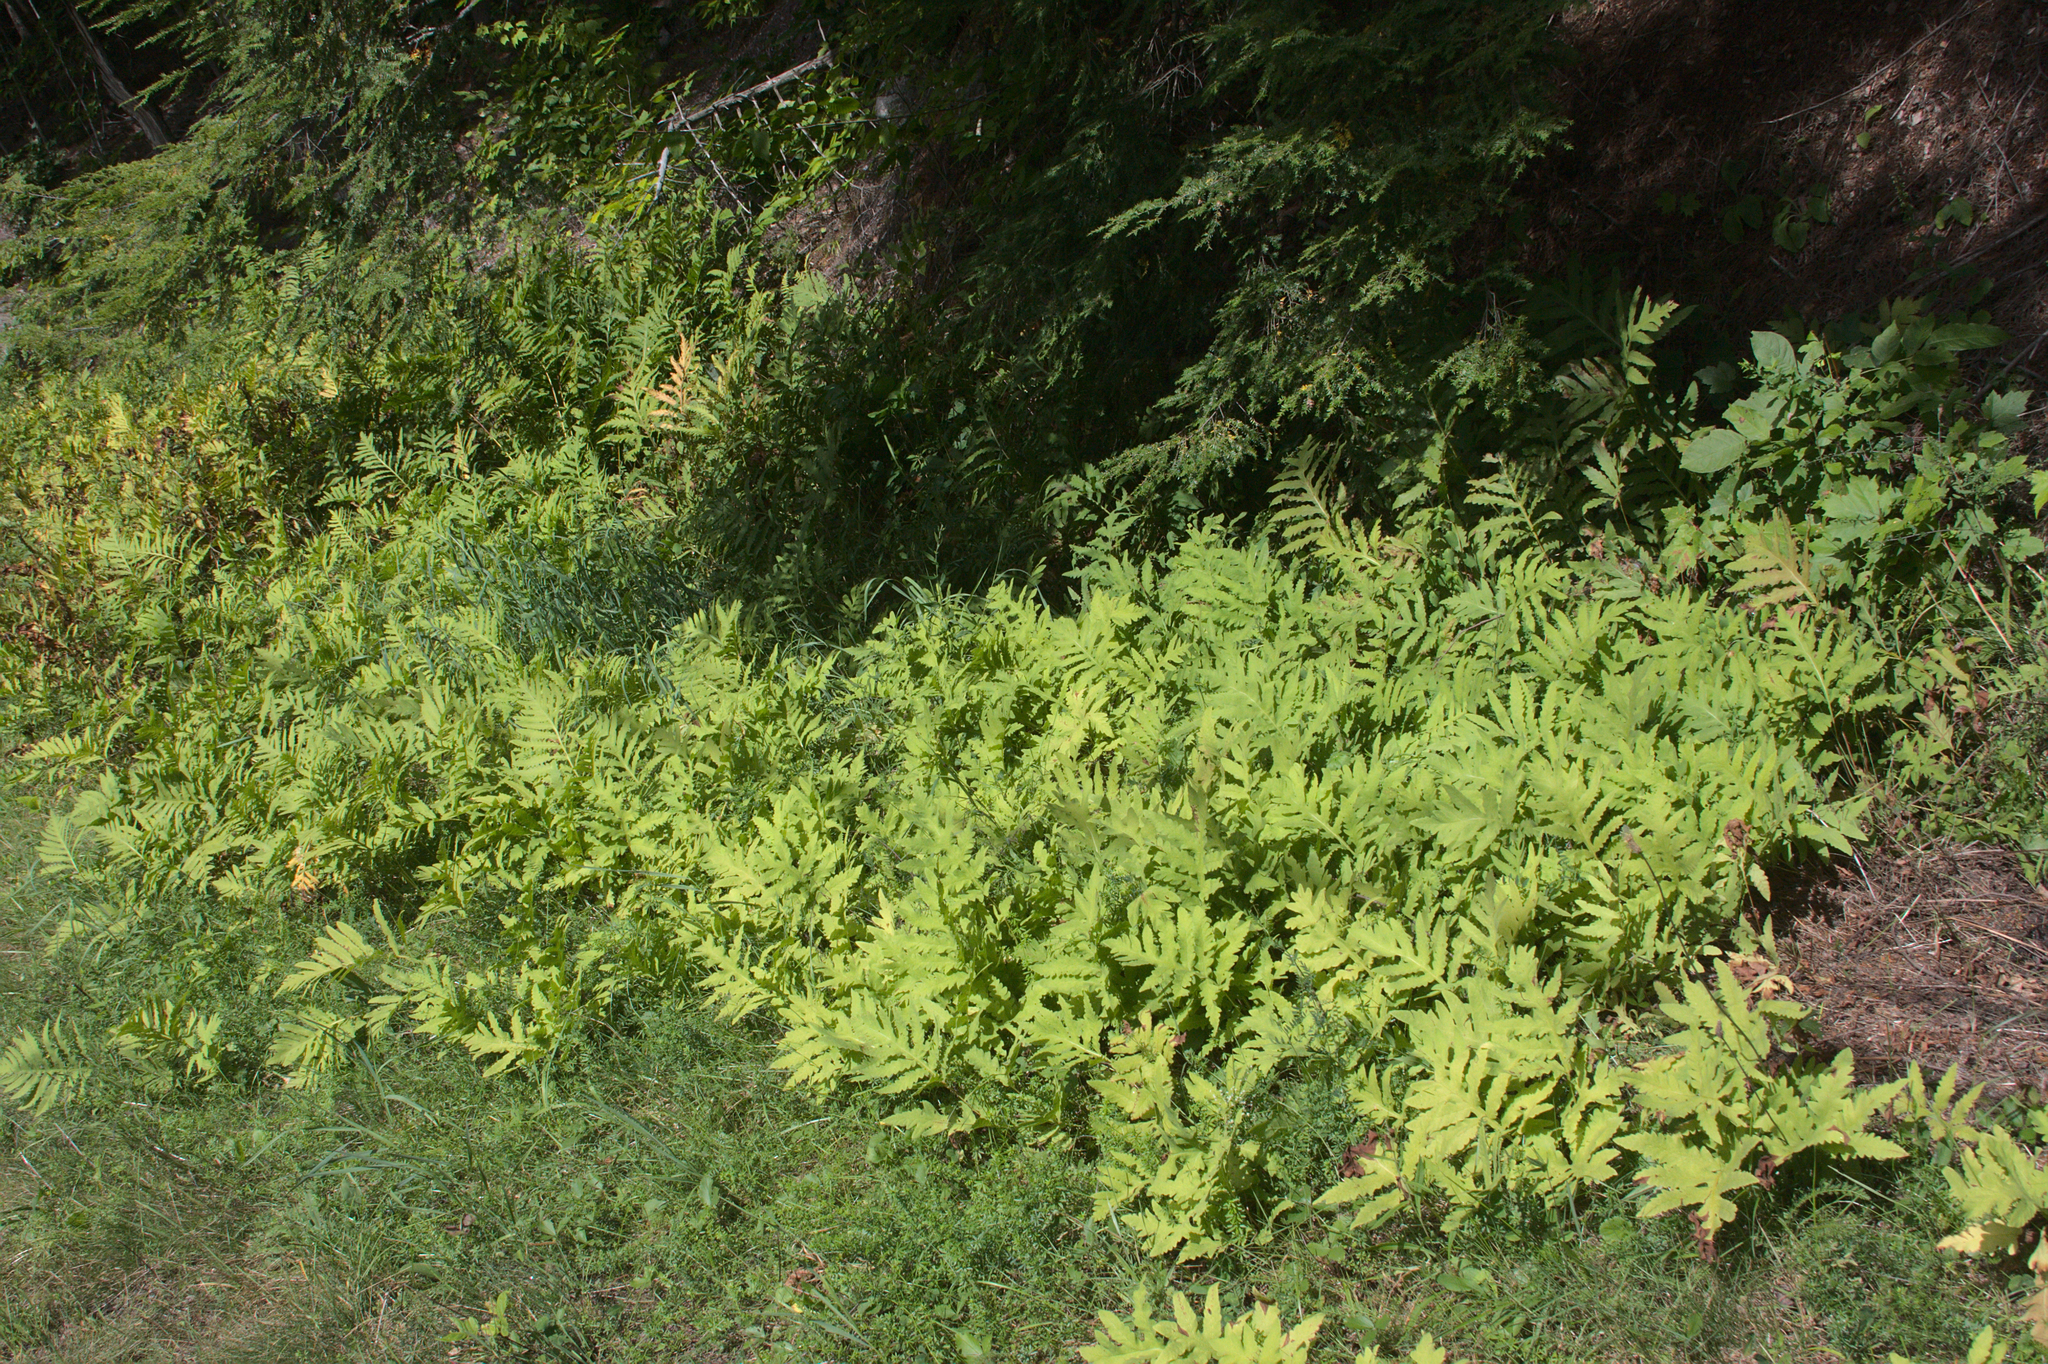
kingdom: Plantae
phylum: Tracheophyta
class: Polypodiopsida
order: Polypodiales
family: Onocleaceae
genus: Onoclea
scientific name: Onoclea sensibilis
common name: Sensitive fern
